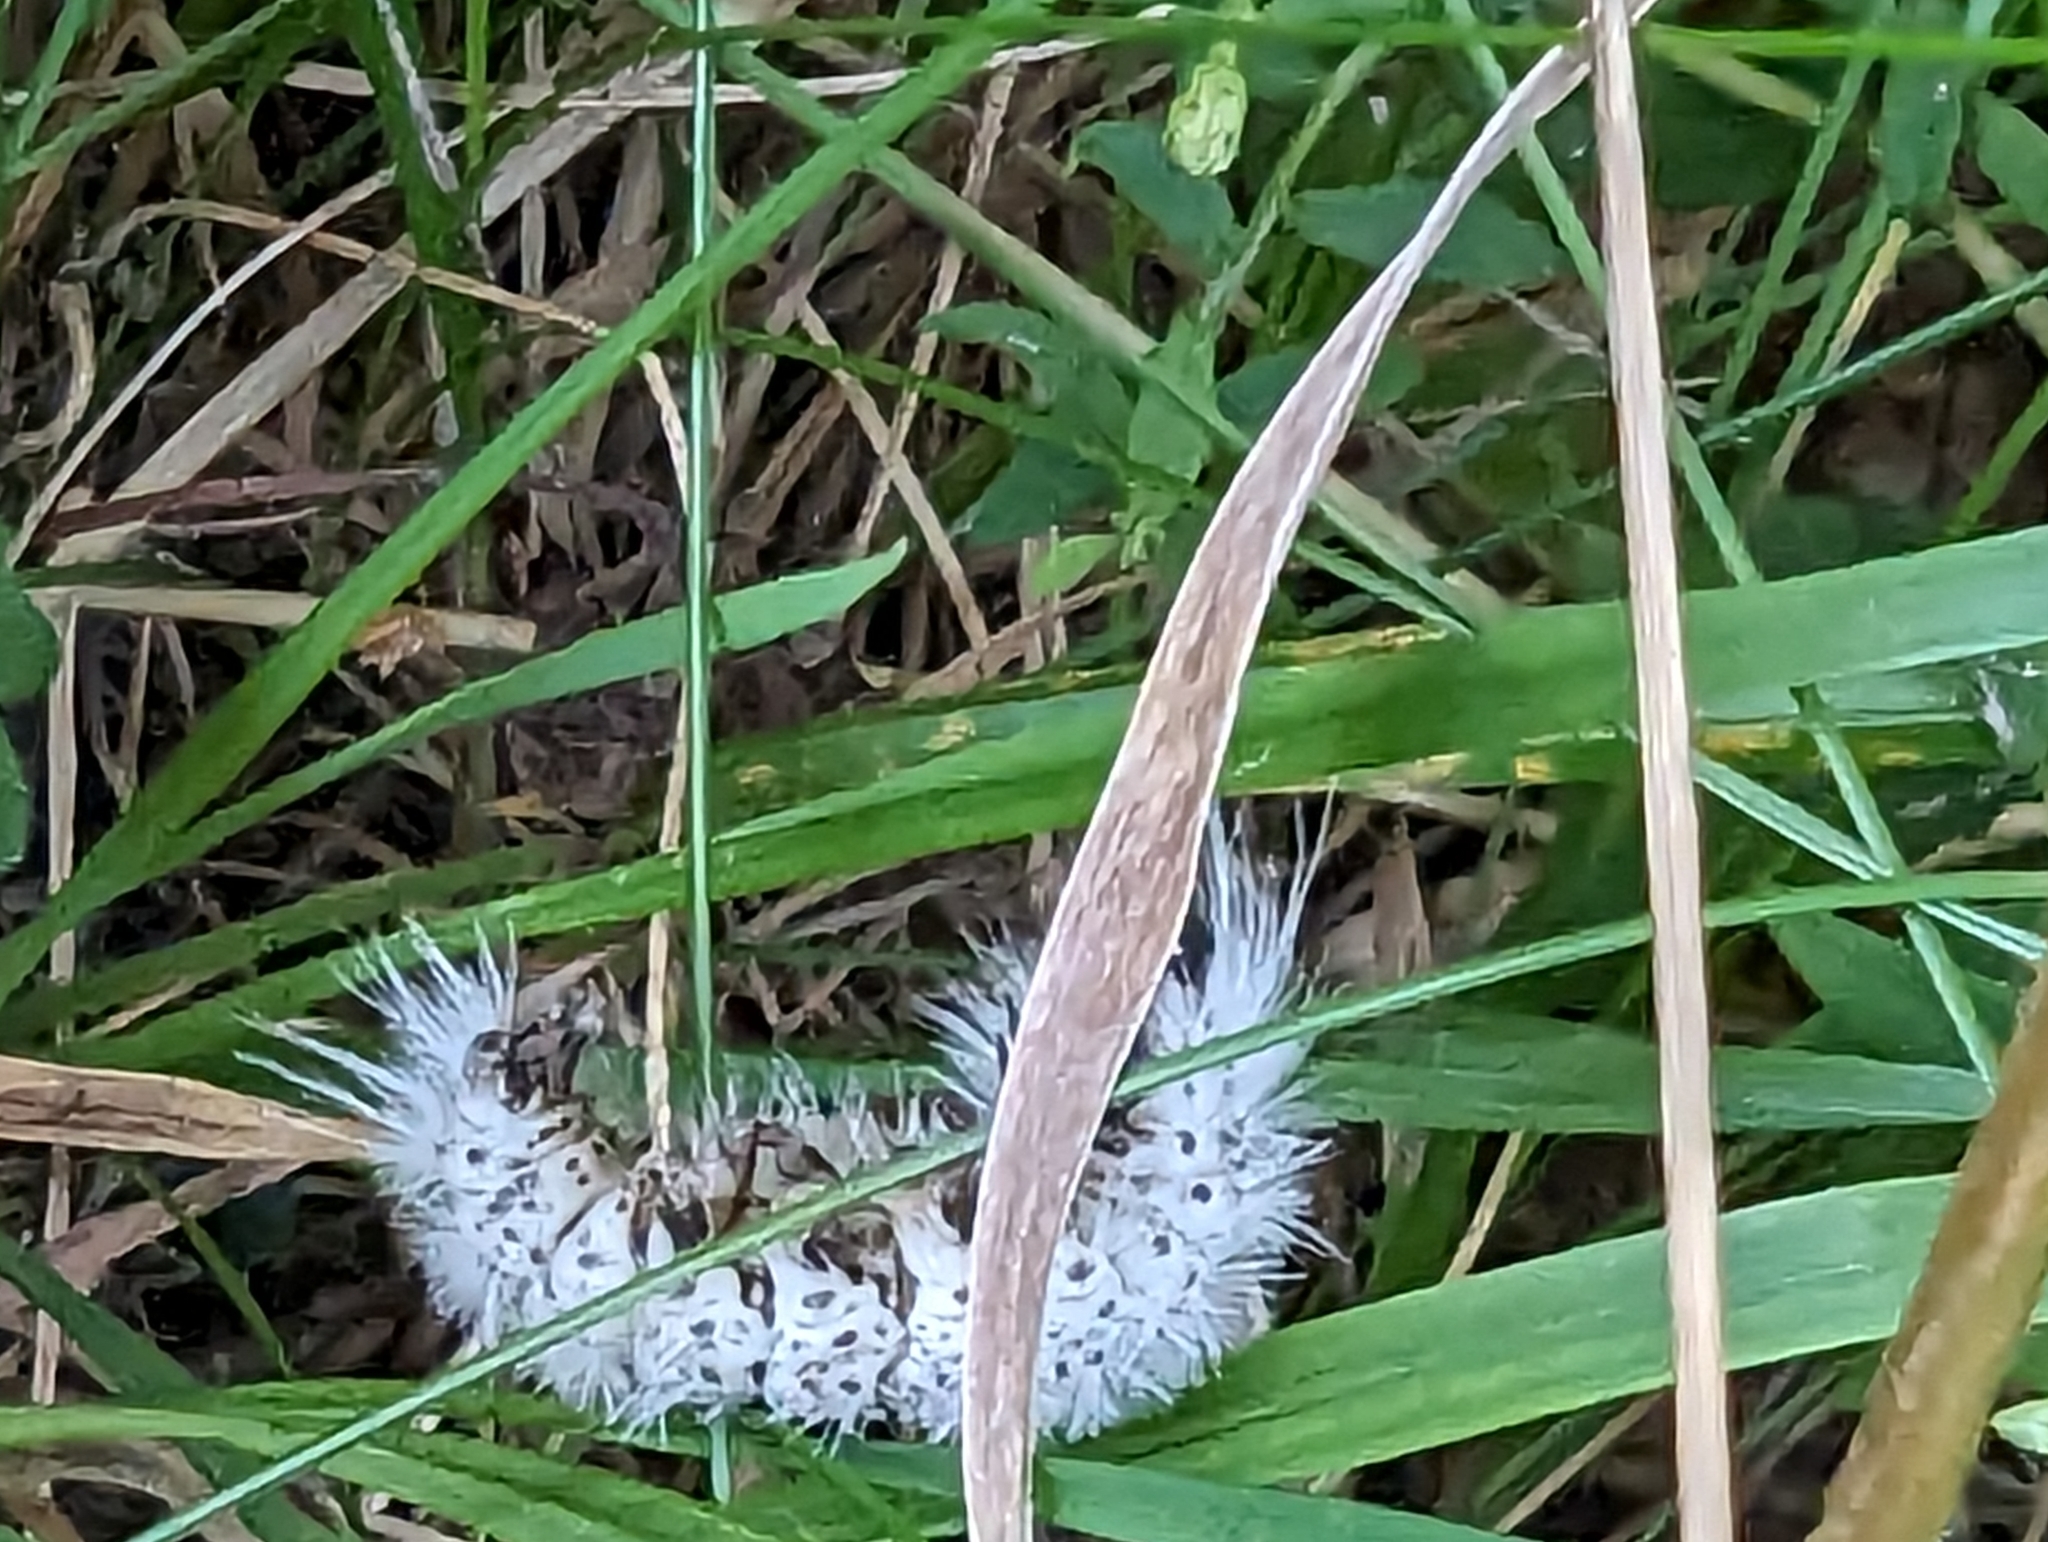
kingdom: Animalia
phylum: Arthropoda
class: Insecta
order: Lepidoptera
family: Erebidae
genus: Lophocampa
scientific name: Lophocampa caryae
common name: Hickory tussock moth
